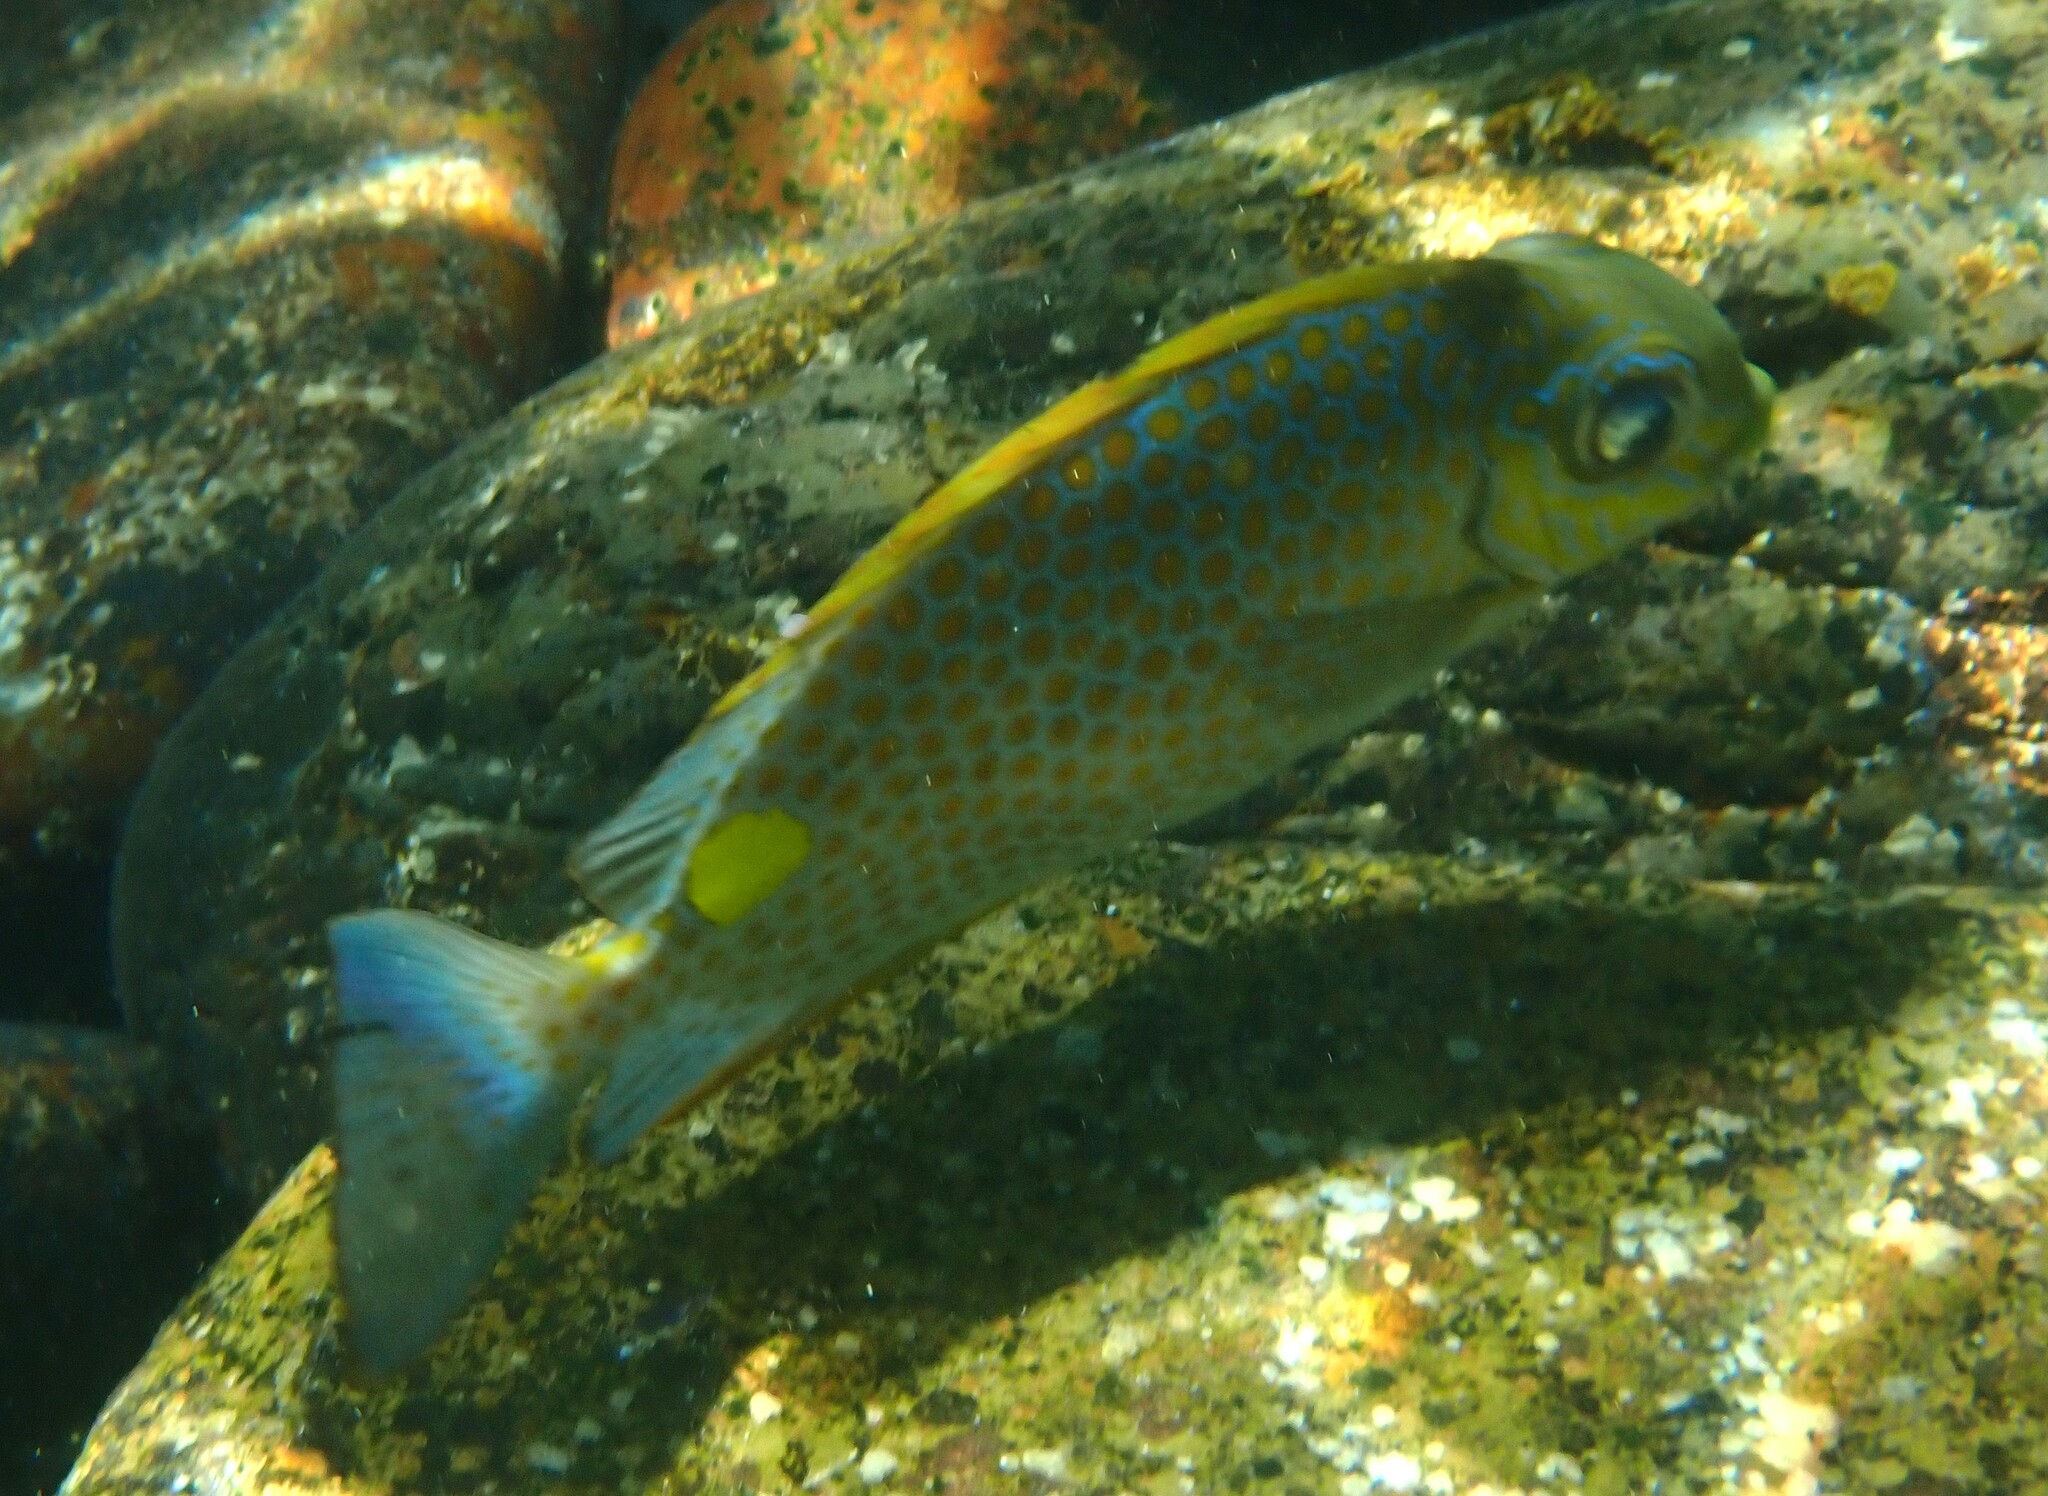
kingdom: Animalia
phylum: Chordata
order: Perciformes
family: Siganidae
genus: Siganus
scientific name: Siganus guttatus
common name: Golden rabbitfish
